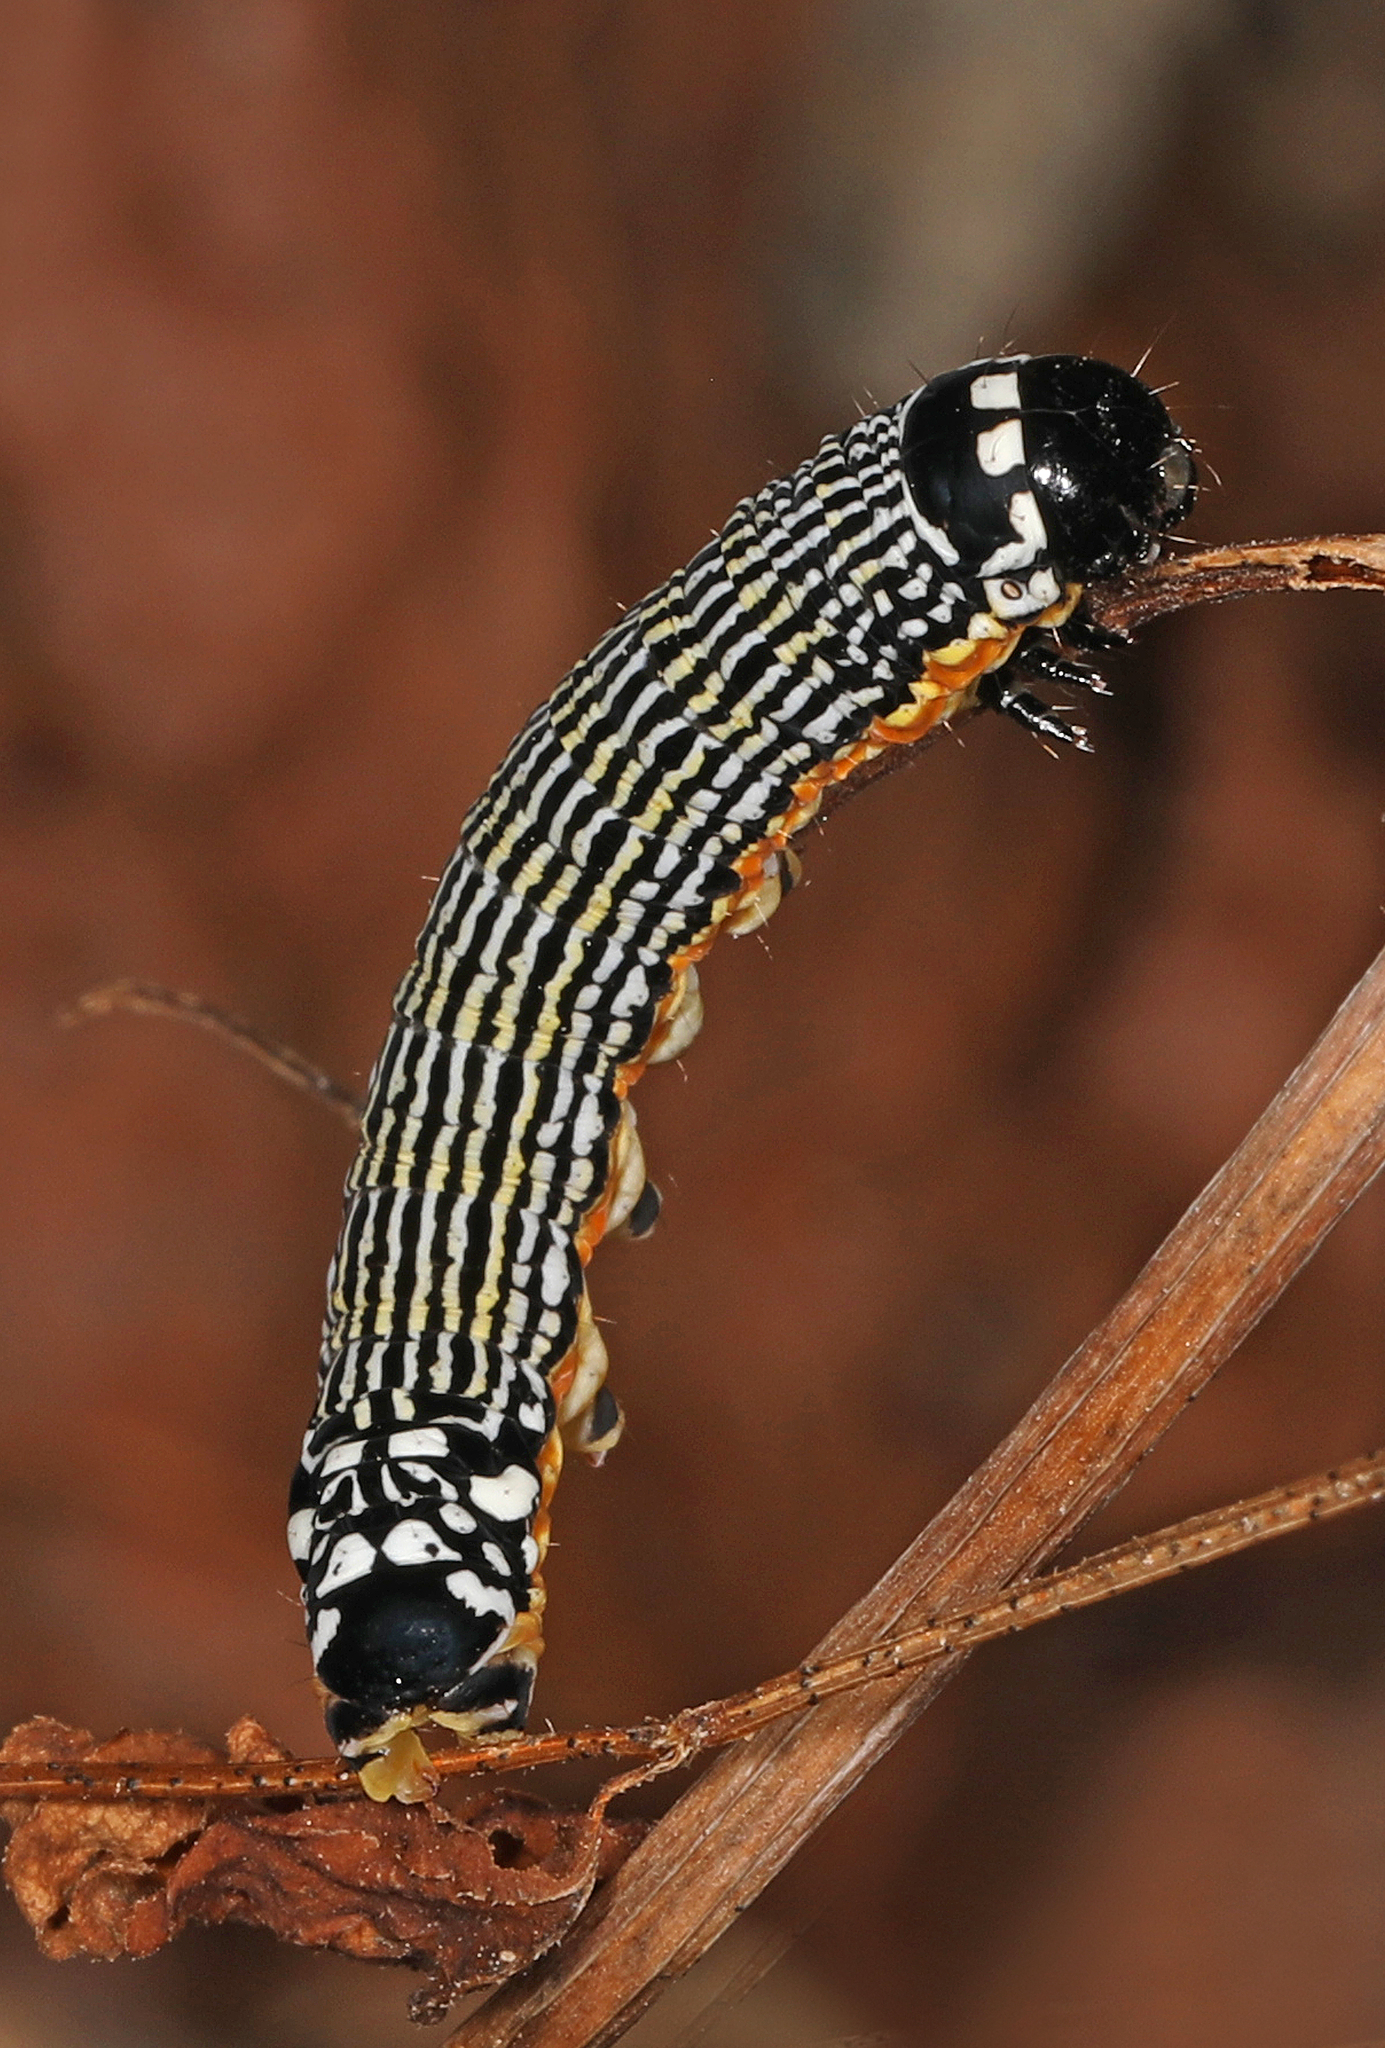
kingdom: Animalia
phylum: Arthropoda
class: Insecta
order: Lepidoptera
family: Noctuidae
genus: Phosphila
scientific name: Phosphila turbulenta
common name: Turbulent phosphila moth
